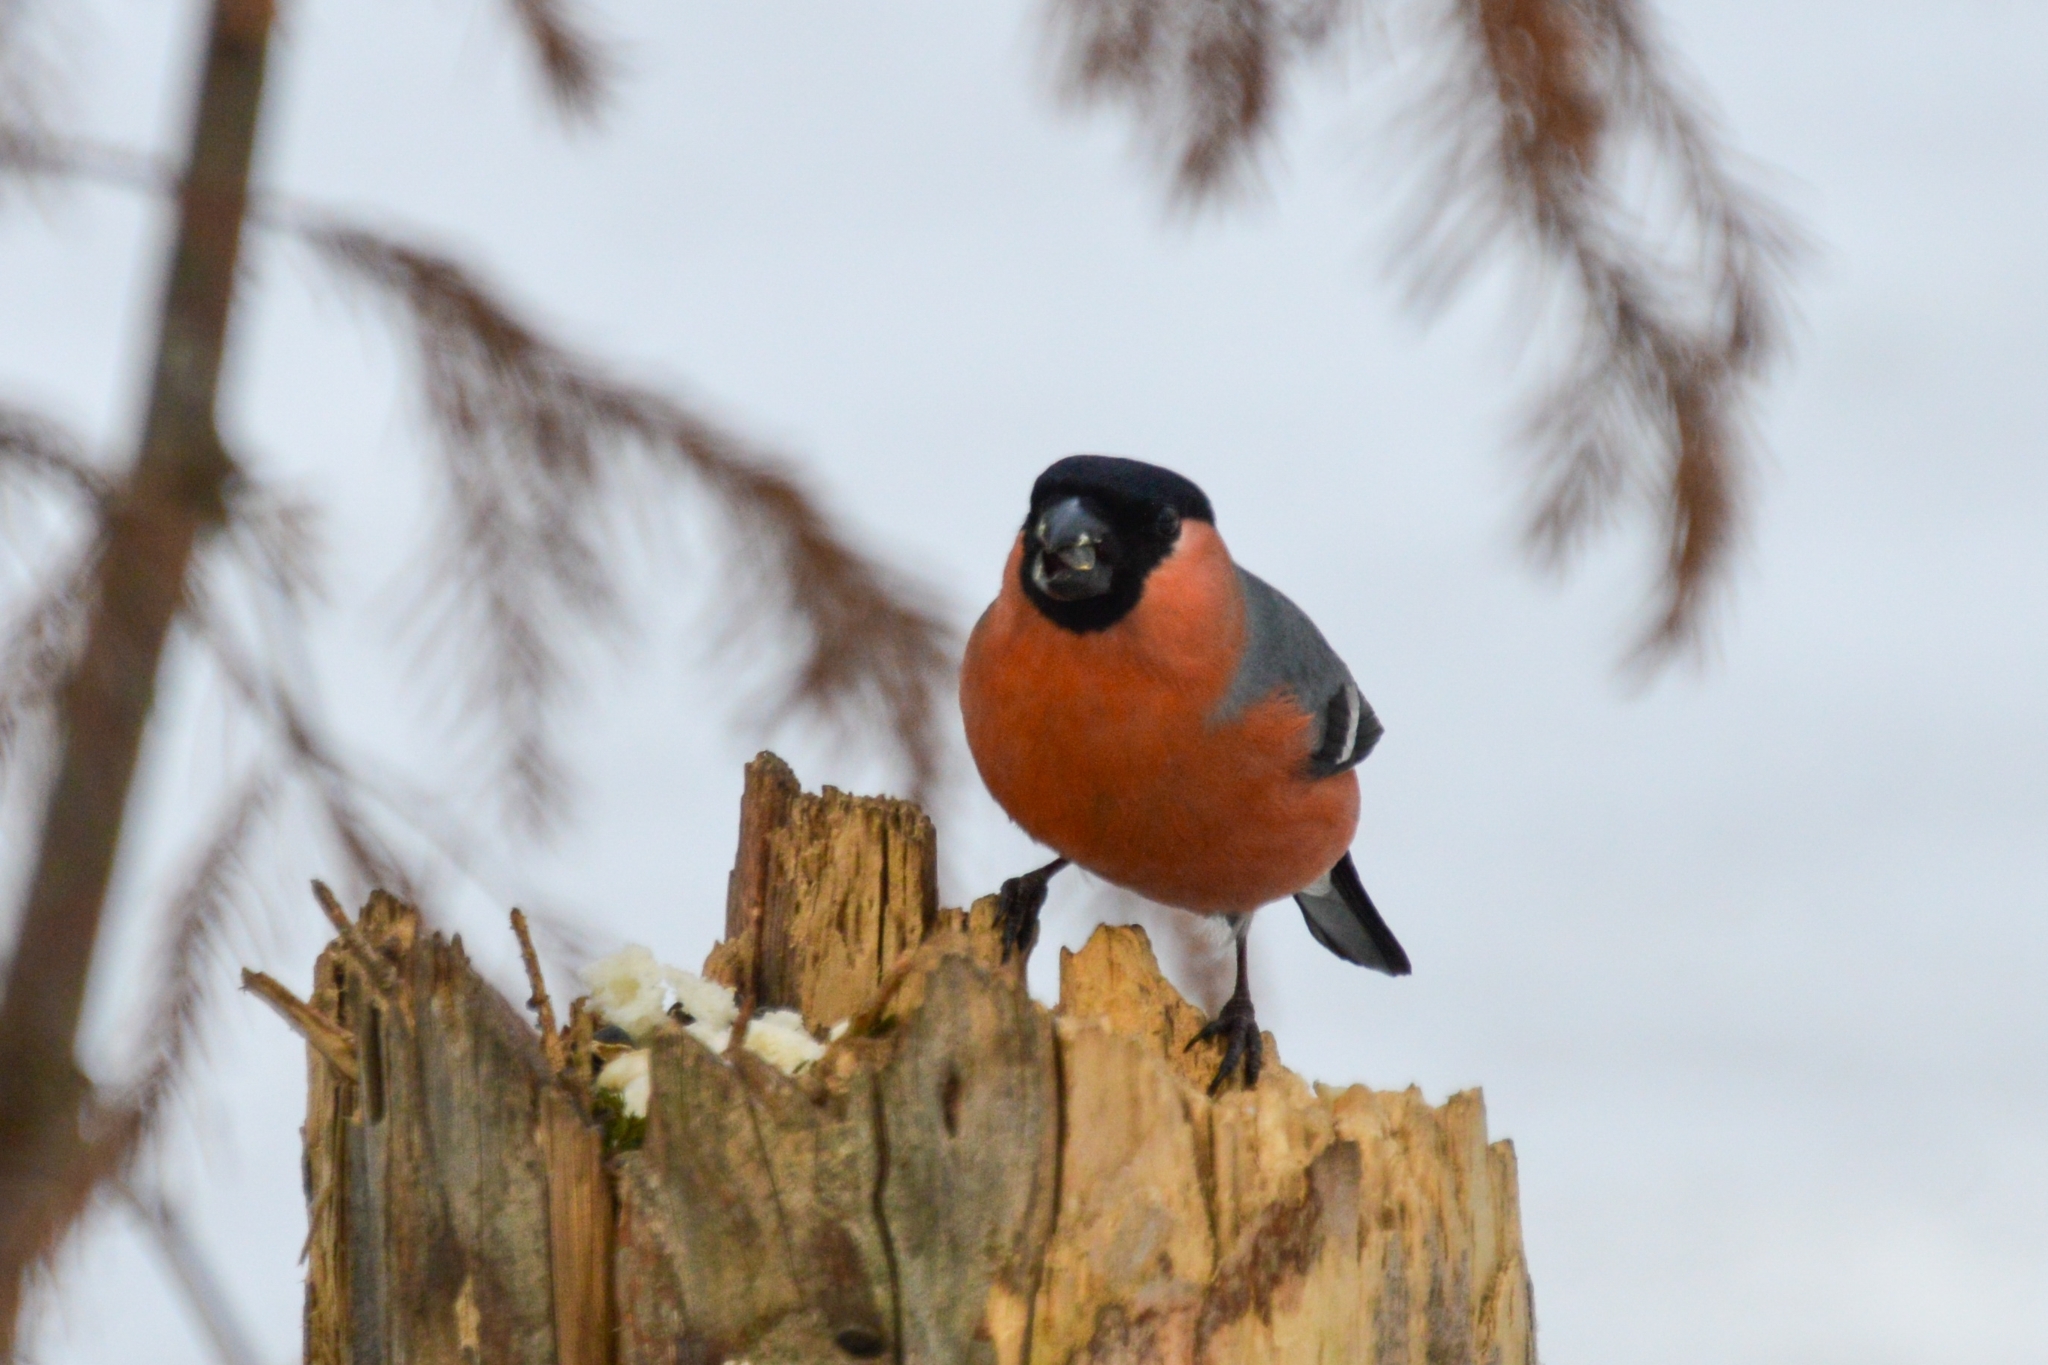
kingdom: Animalia
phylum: Chordata
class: Aves
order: Passeriformes
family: Fringillidae
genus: Pyrrhula
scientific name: Pyrrhula pyrrhula
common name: Eurasian bullfinch
